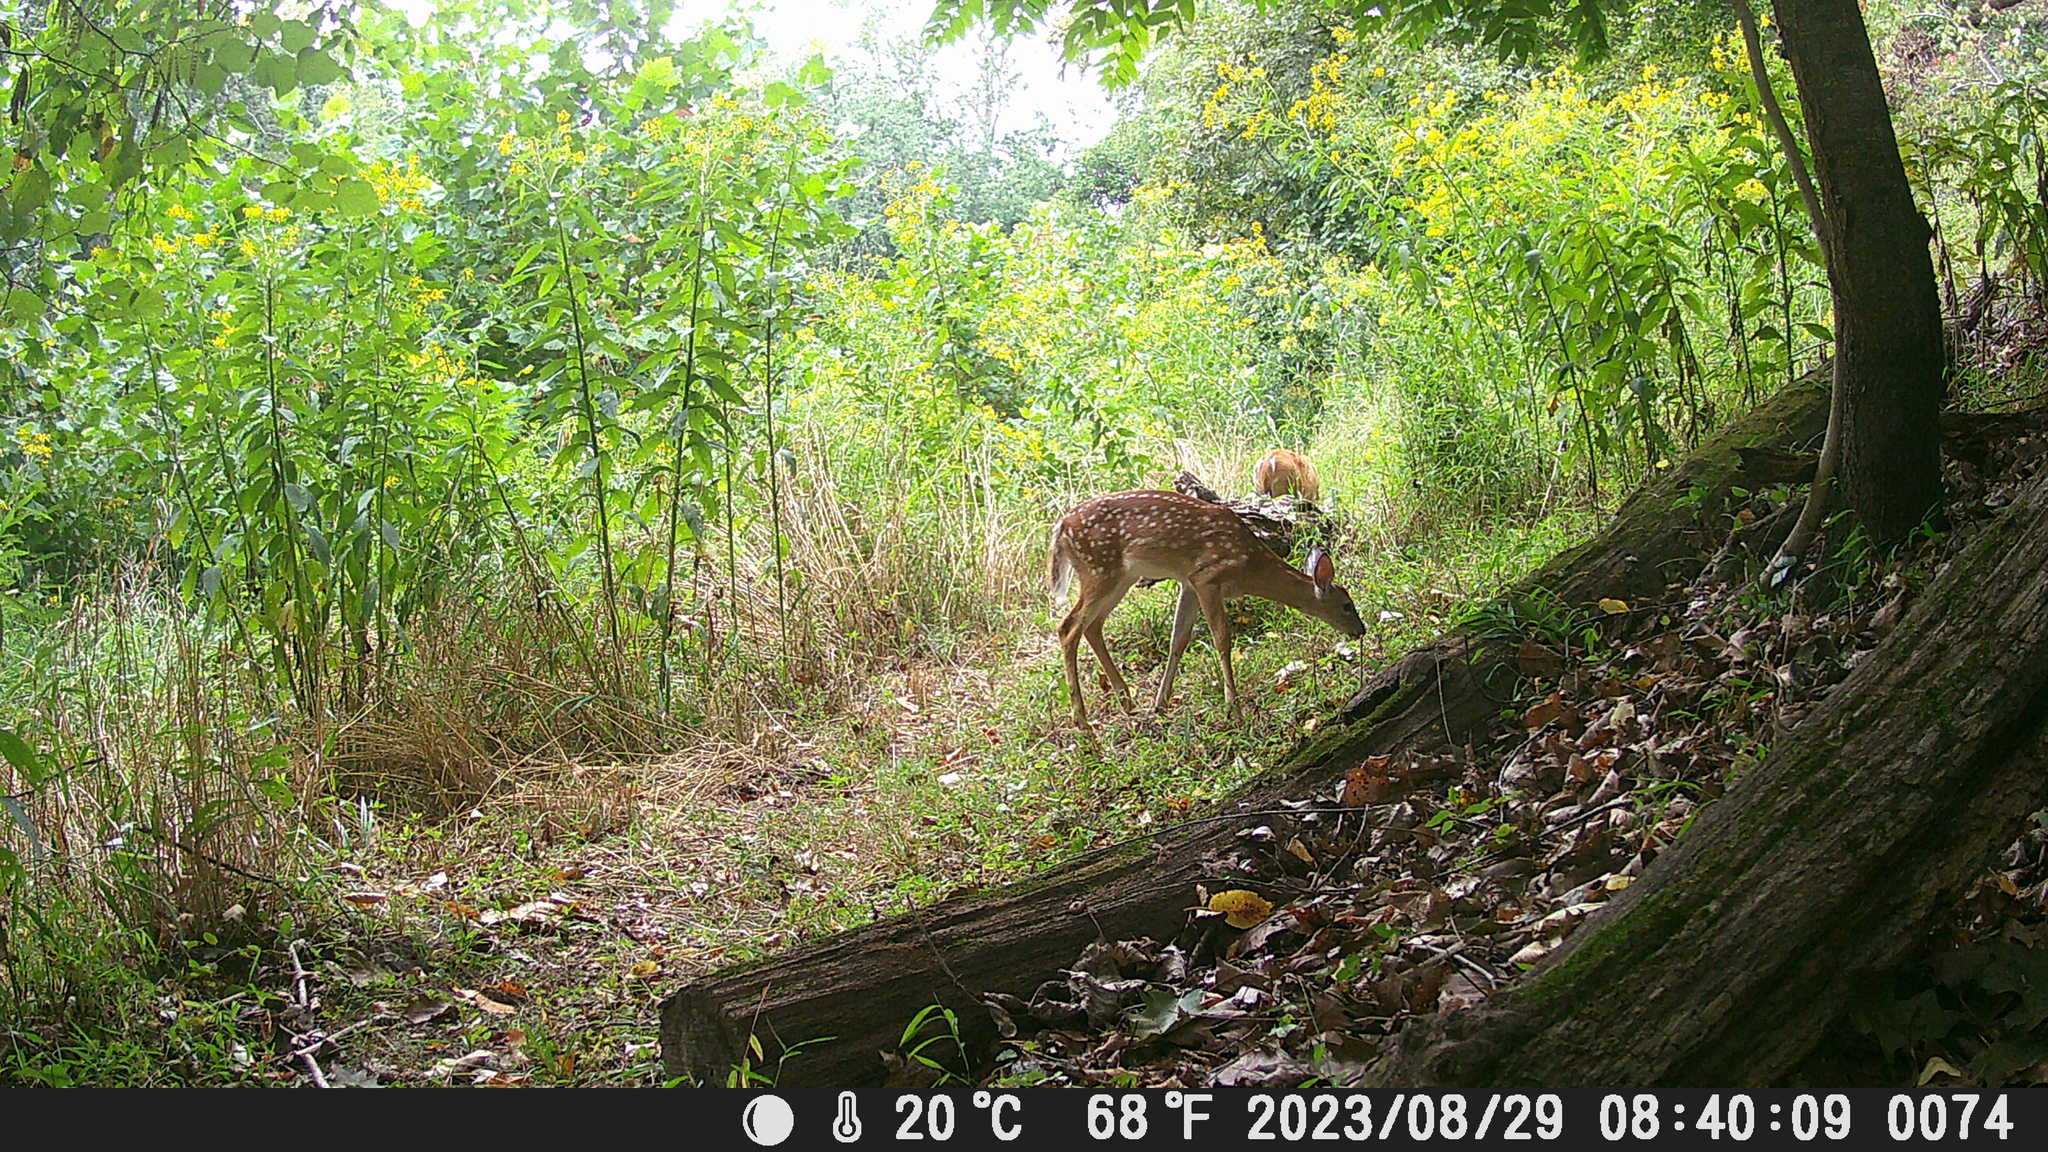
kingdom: Animalia
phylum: Chordata
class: Mammalia
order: Artiodactyla
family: Cervidae
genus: Odocoileus
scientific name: Odocoileus virginianus
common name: White-tailed deer
